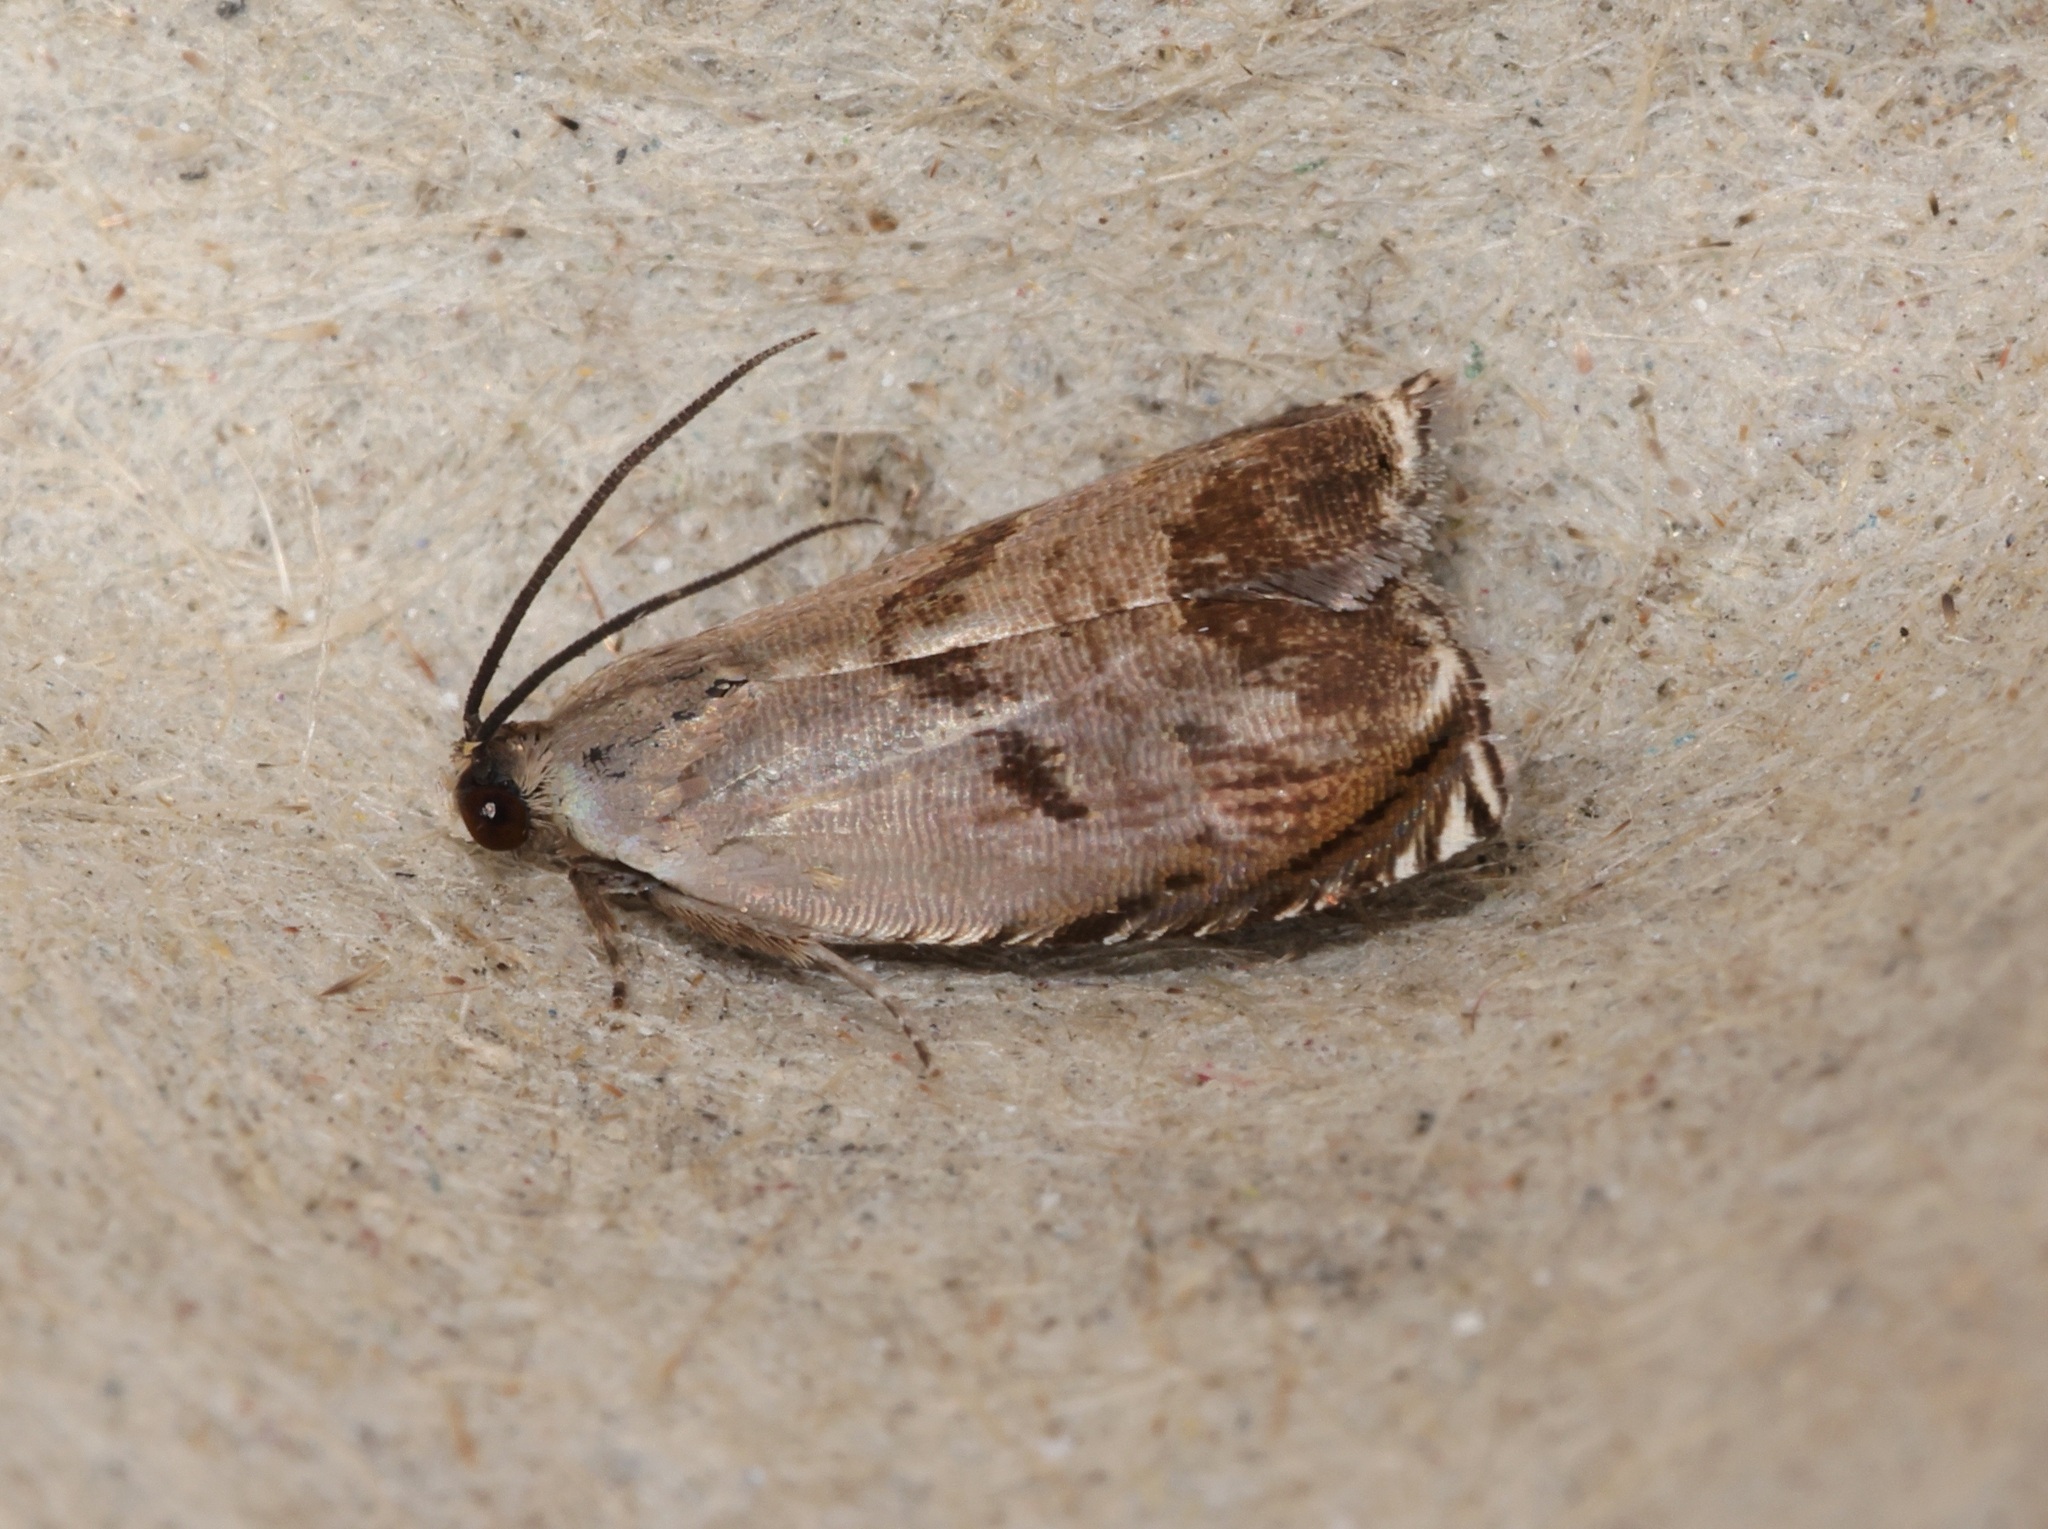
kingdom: Animalia
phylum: Arthropoda
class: Insecta
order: Lepidoptera
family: Tortricidae
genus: Andrioplecta
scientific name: Andrioplecta oxystaura
